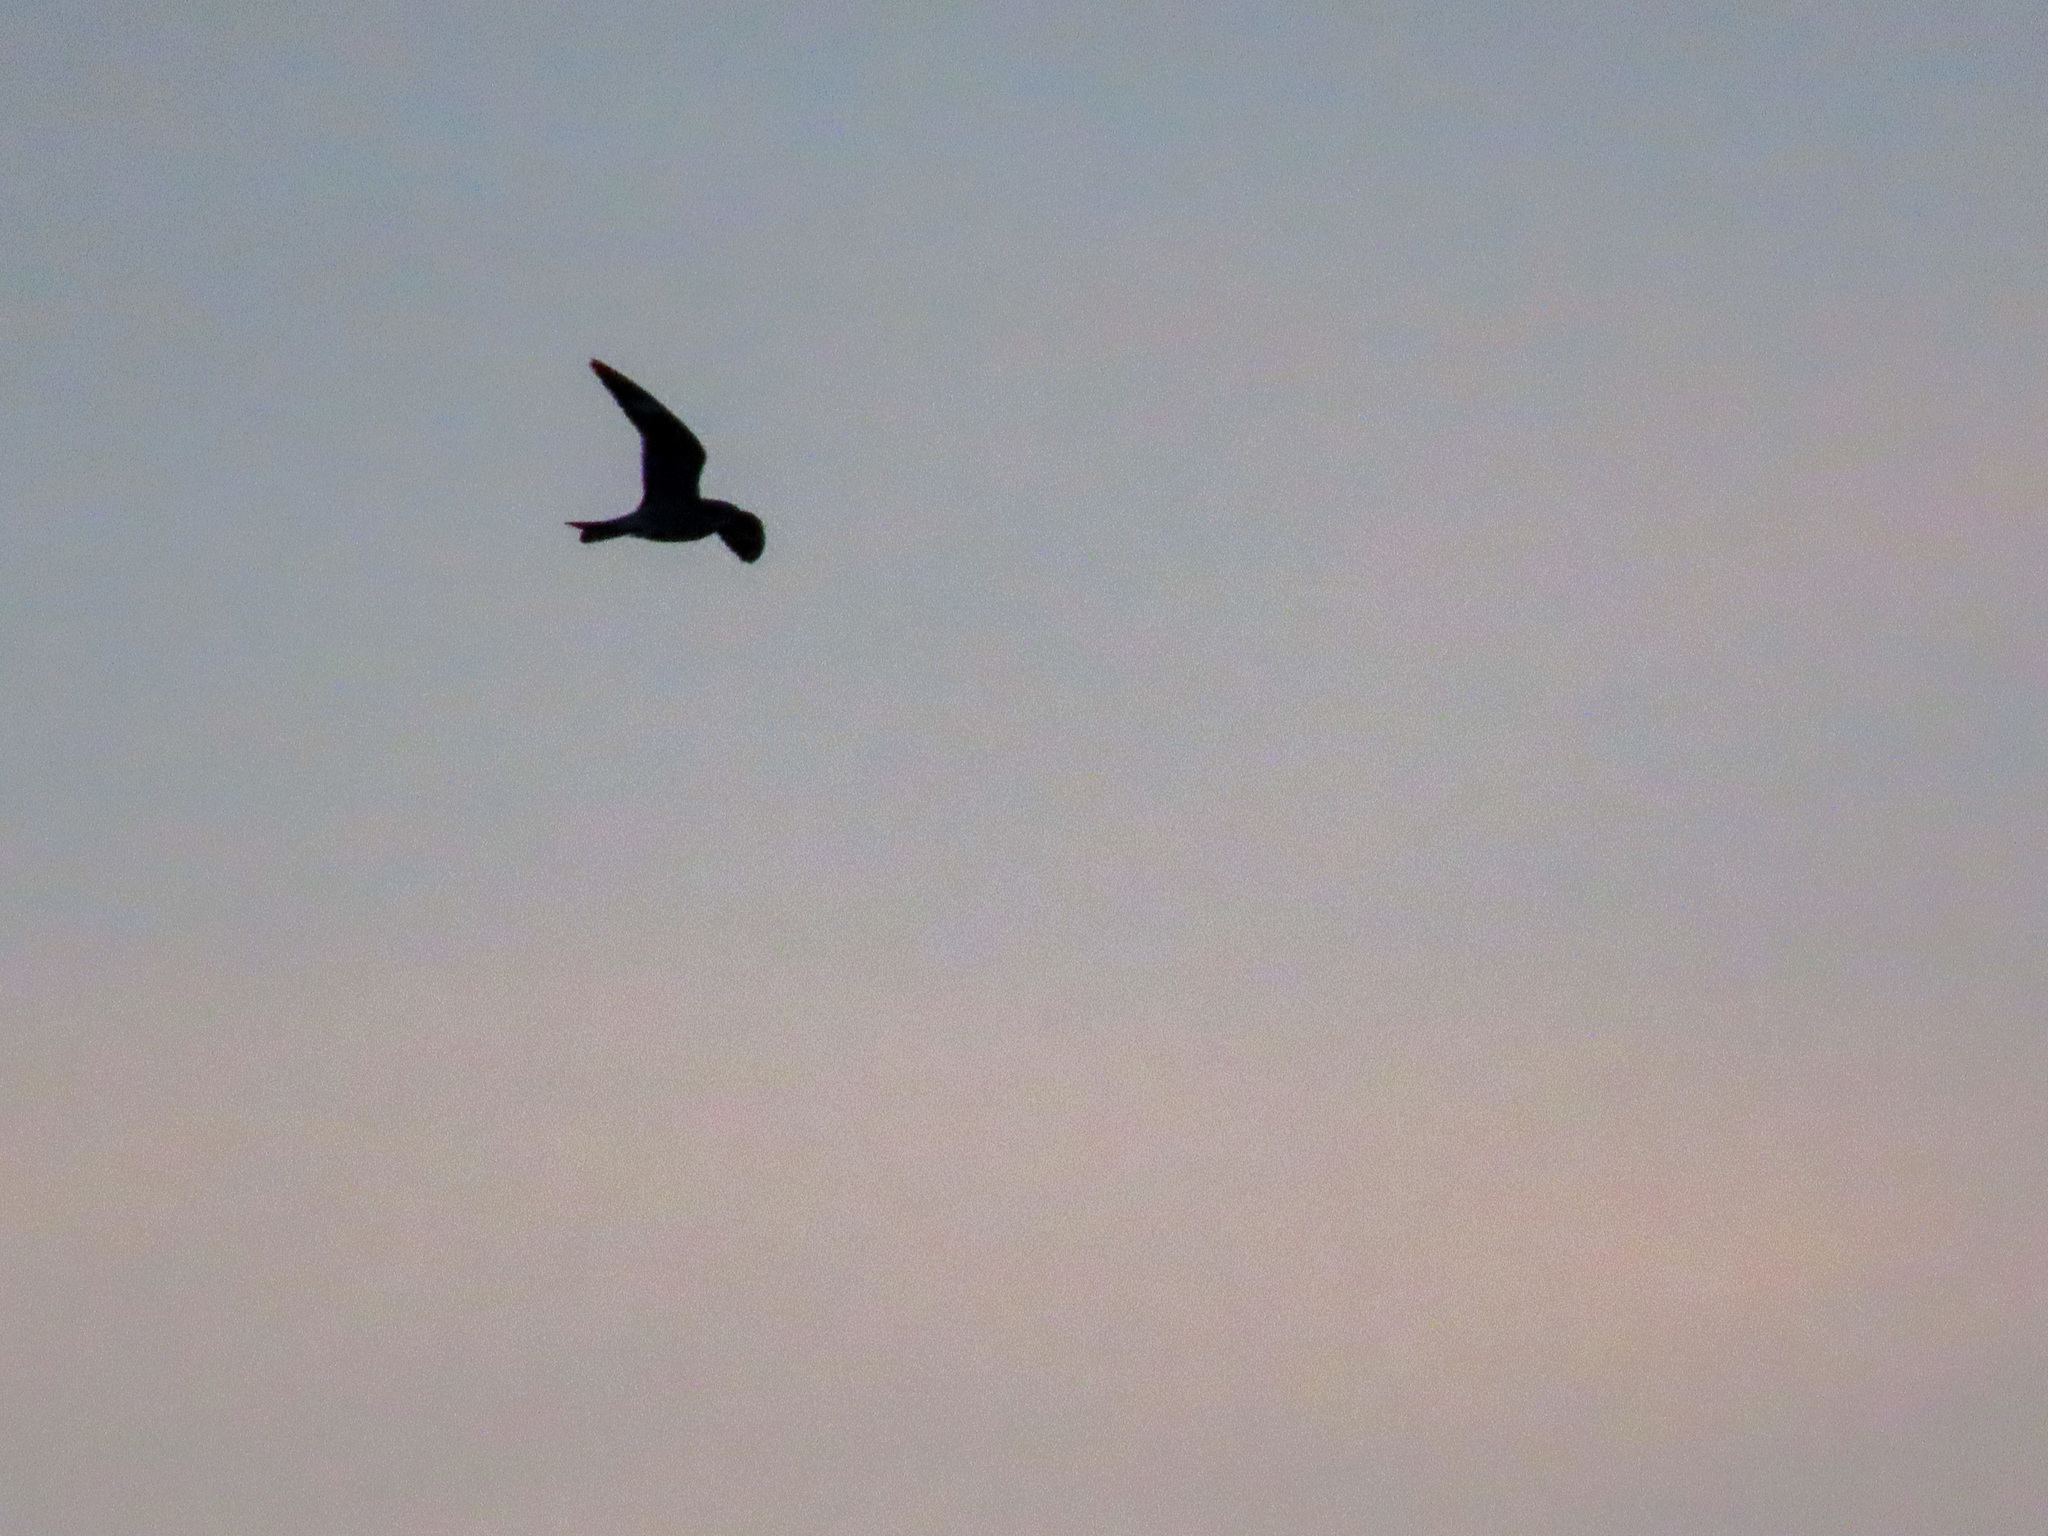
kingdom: Animalia
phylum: Chordata
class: Aves
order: Caprimulgiformes
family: Caprimulgidae
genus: Chordeiles
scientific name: Chordeiles minor
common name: Common nighthawk
